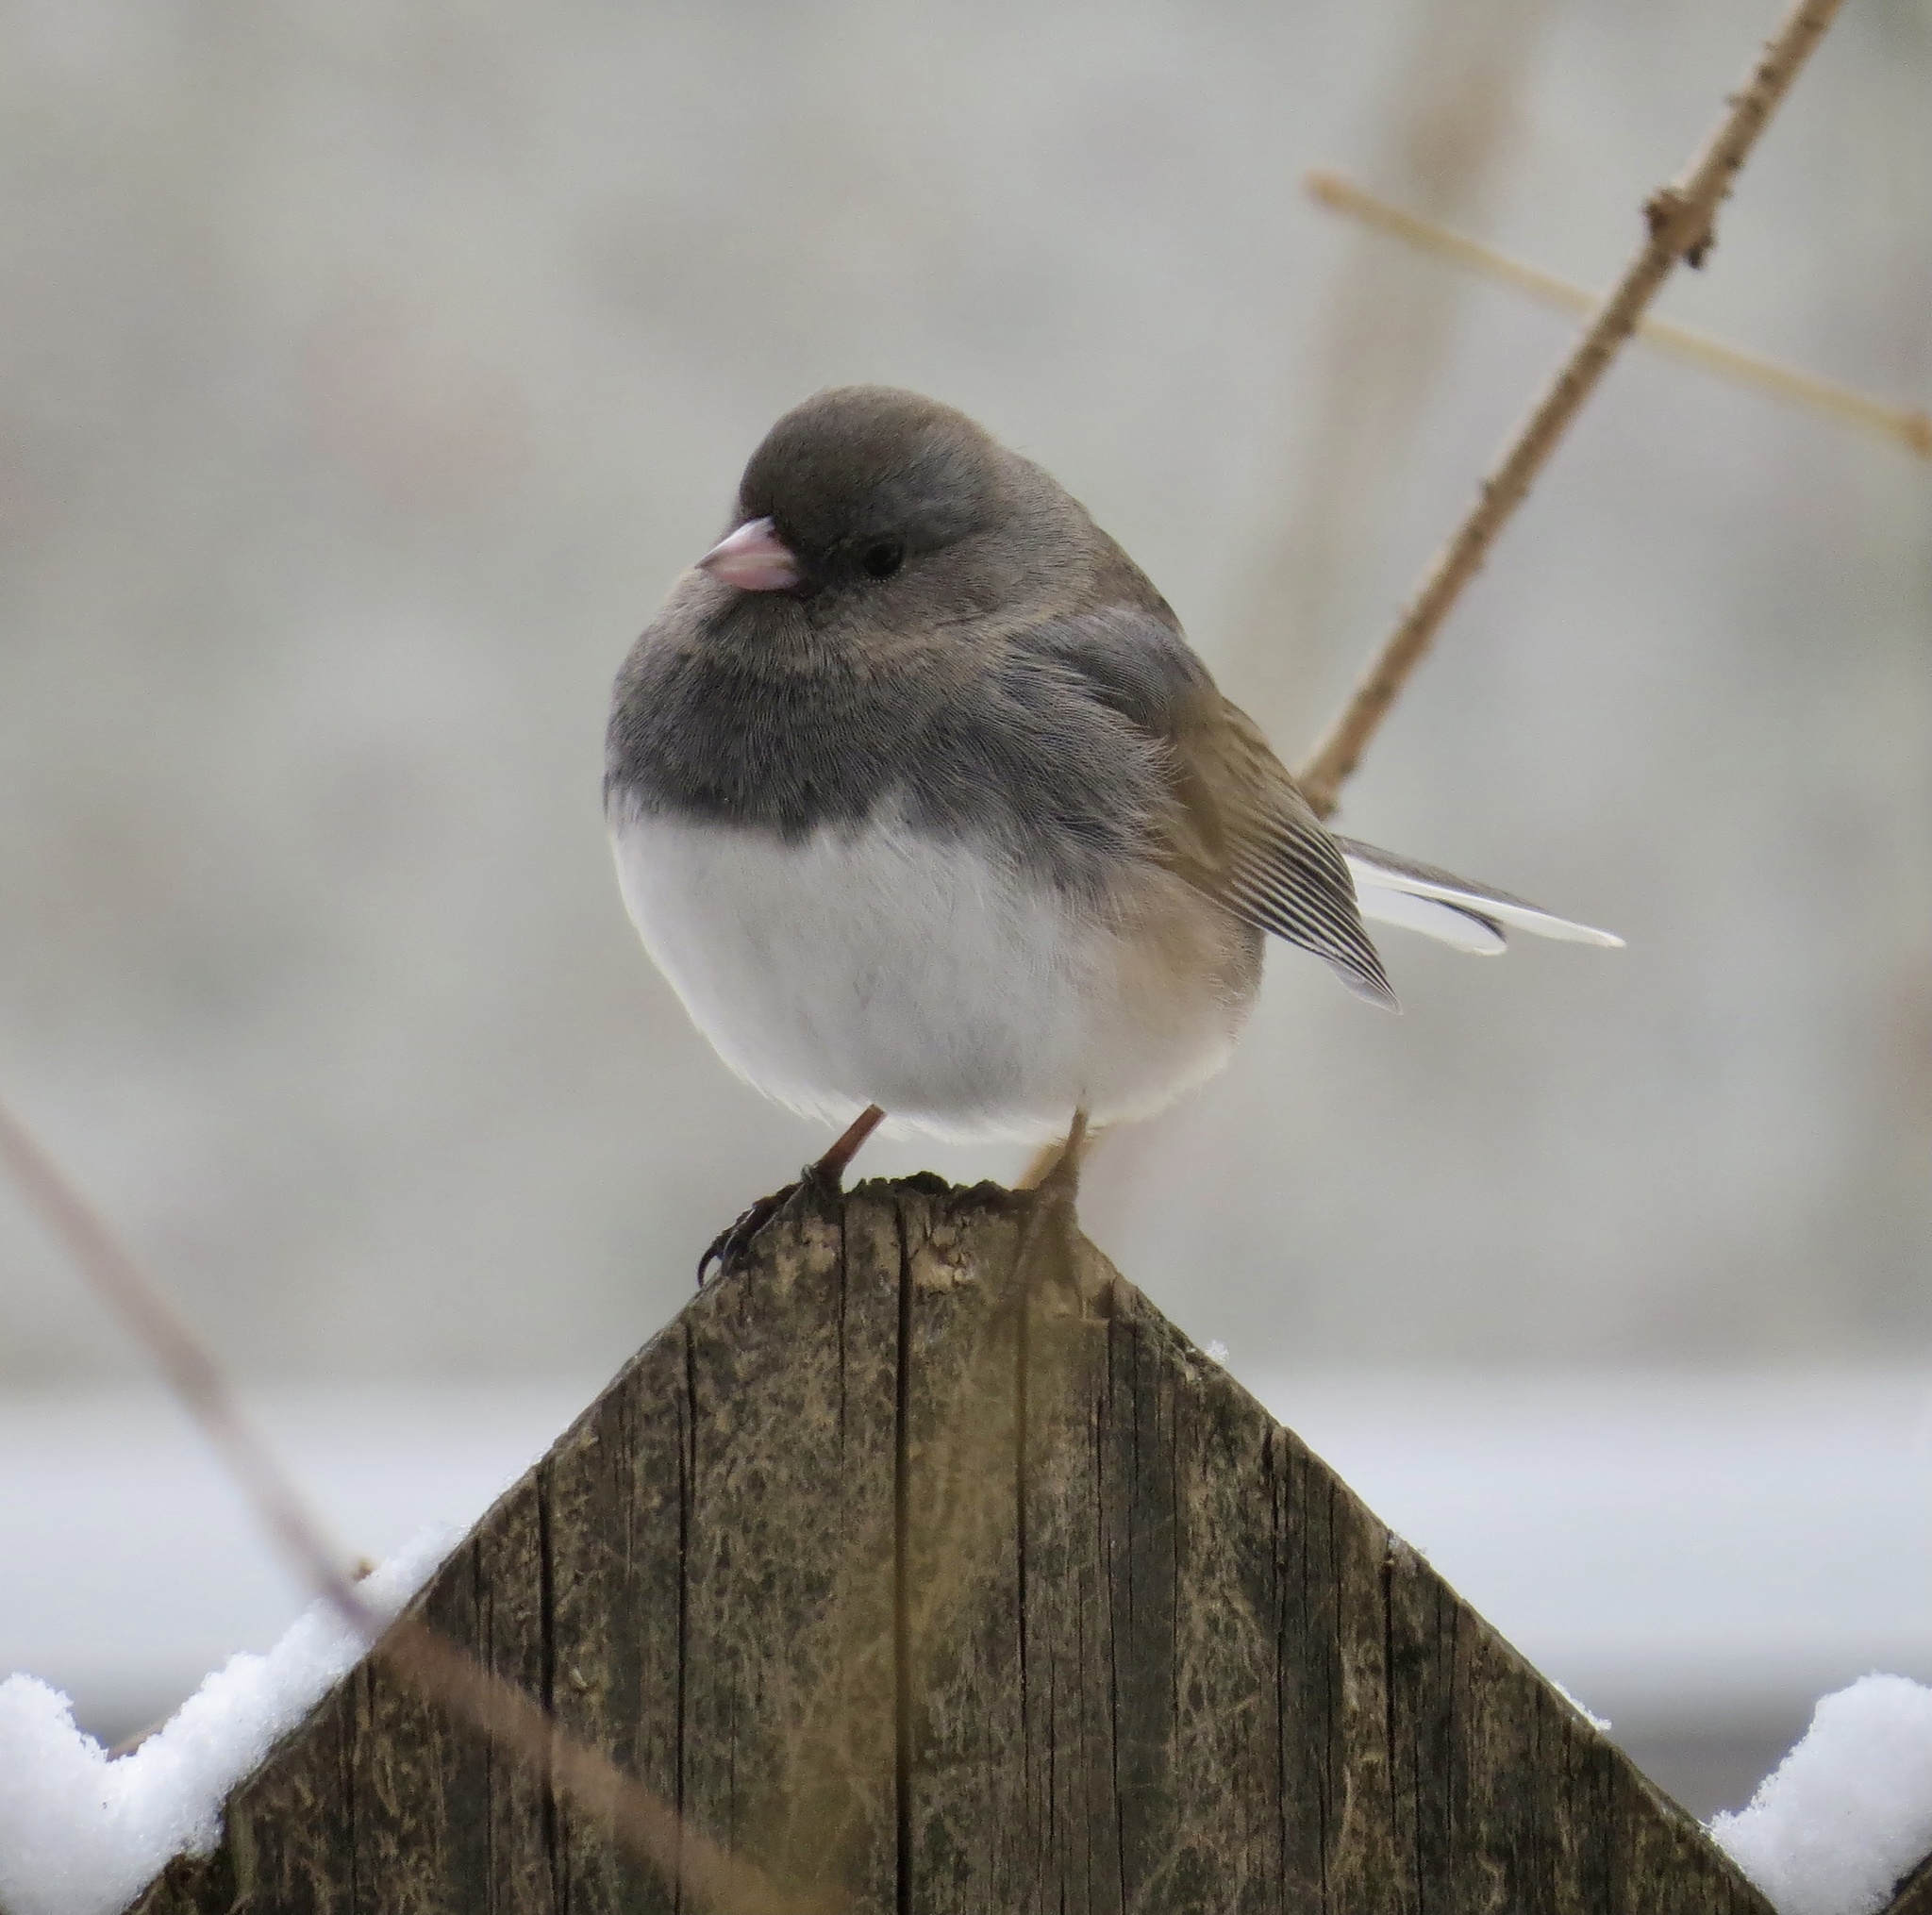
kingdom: Animalia
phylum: Chordata
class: Aves
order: Passeriformes
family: Passerellidae
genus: Junco
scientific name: Junco hyemalis
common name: Dark-eyed junco
